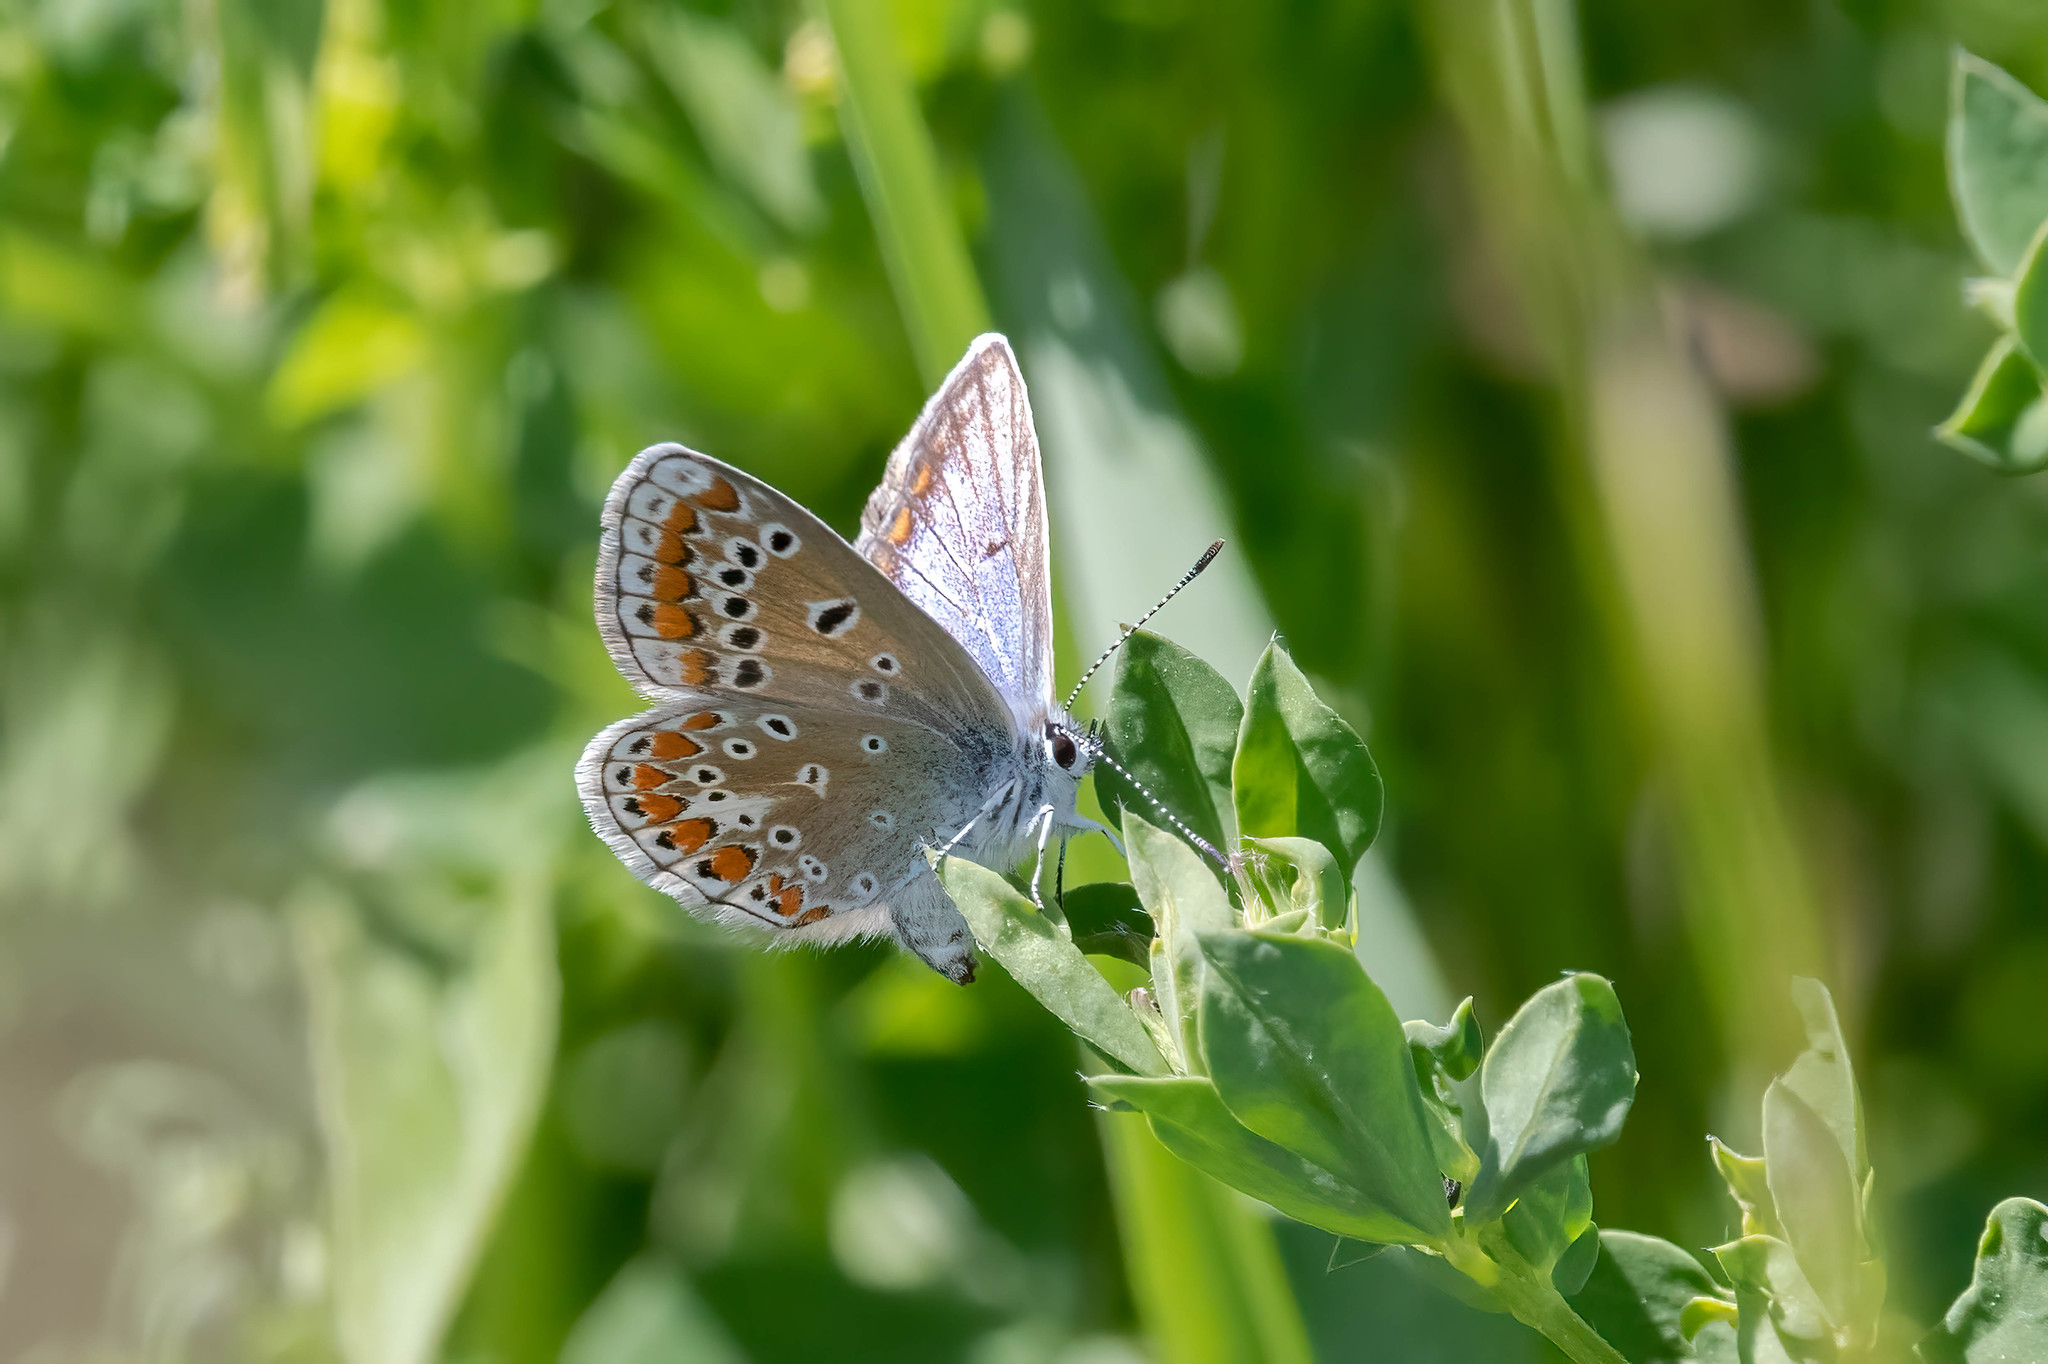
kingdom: Animalia
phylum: Arthropoda
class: Insecta
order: Lepidoptera
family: Lycaenidae
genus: Polyommatus
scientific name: Polyommatus icarus
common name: Common blue
